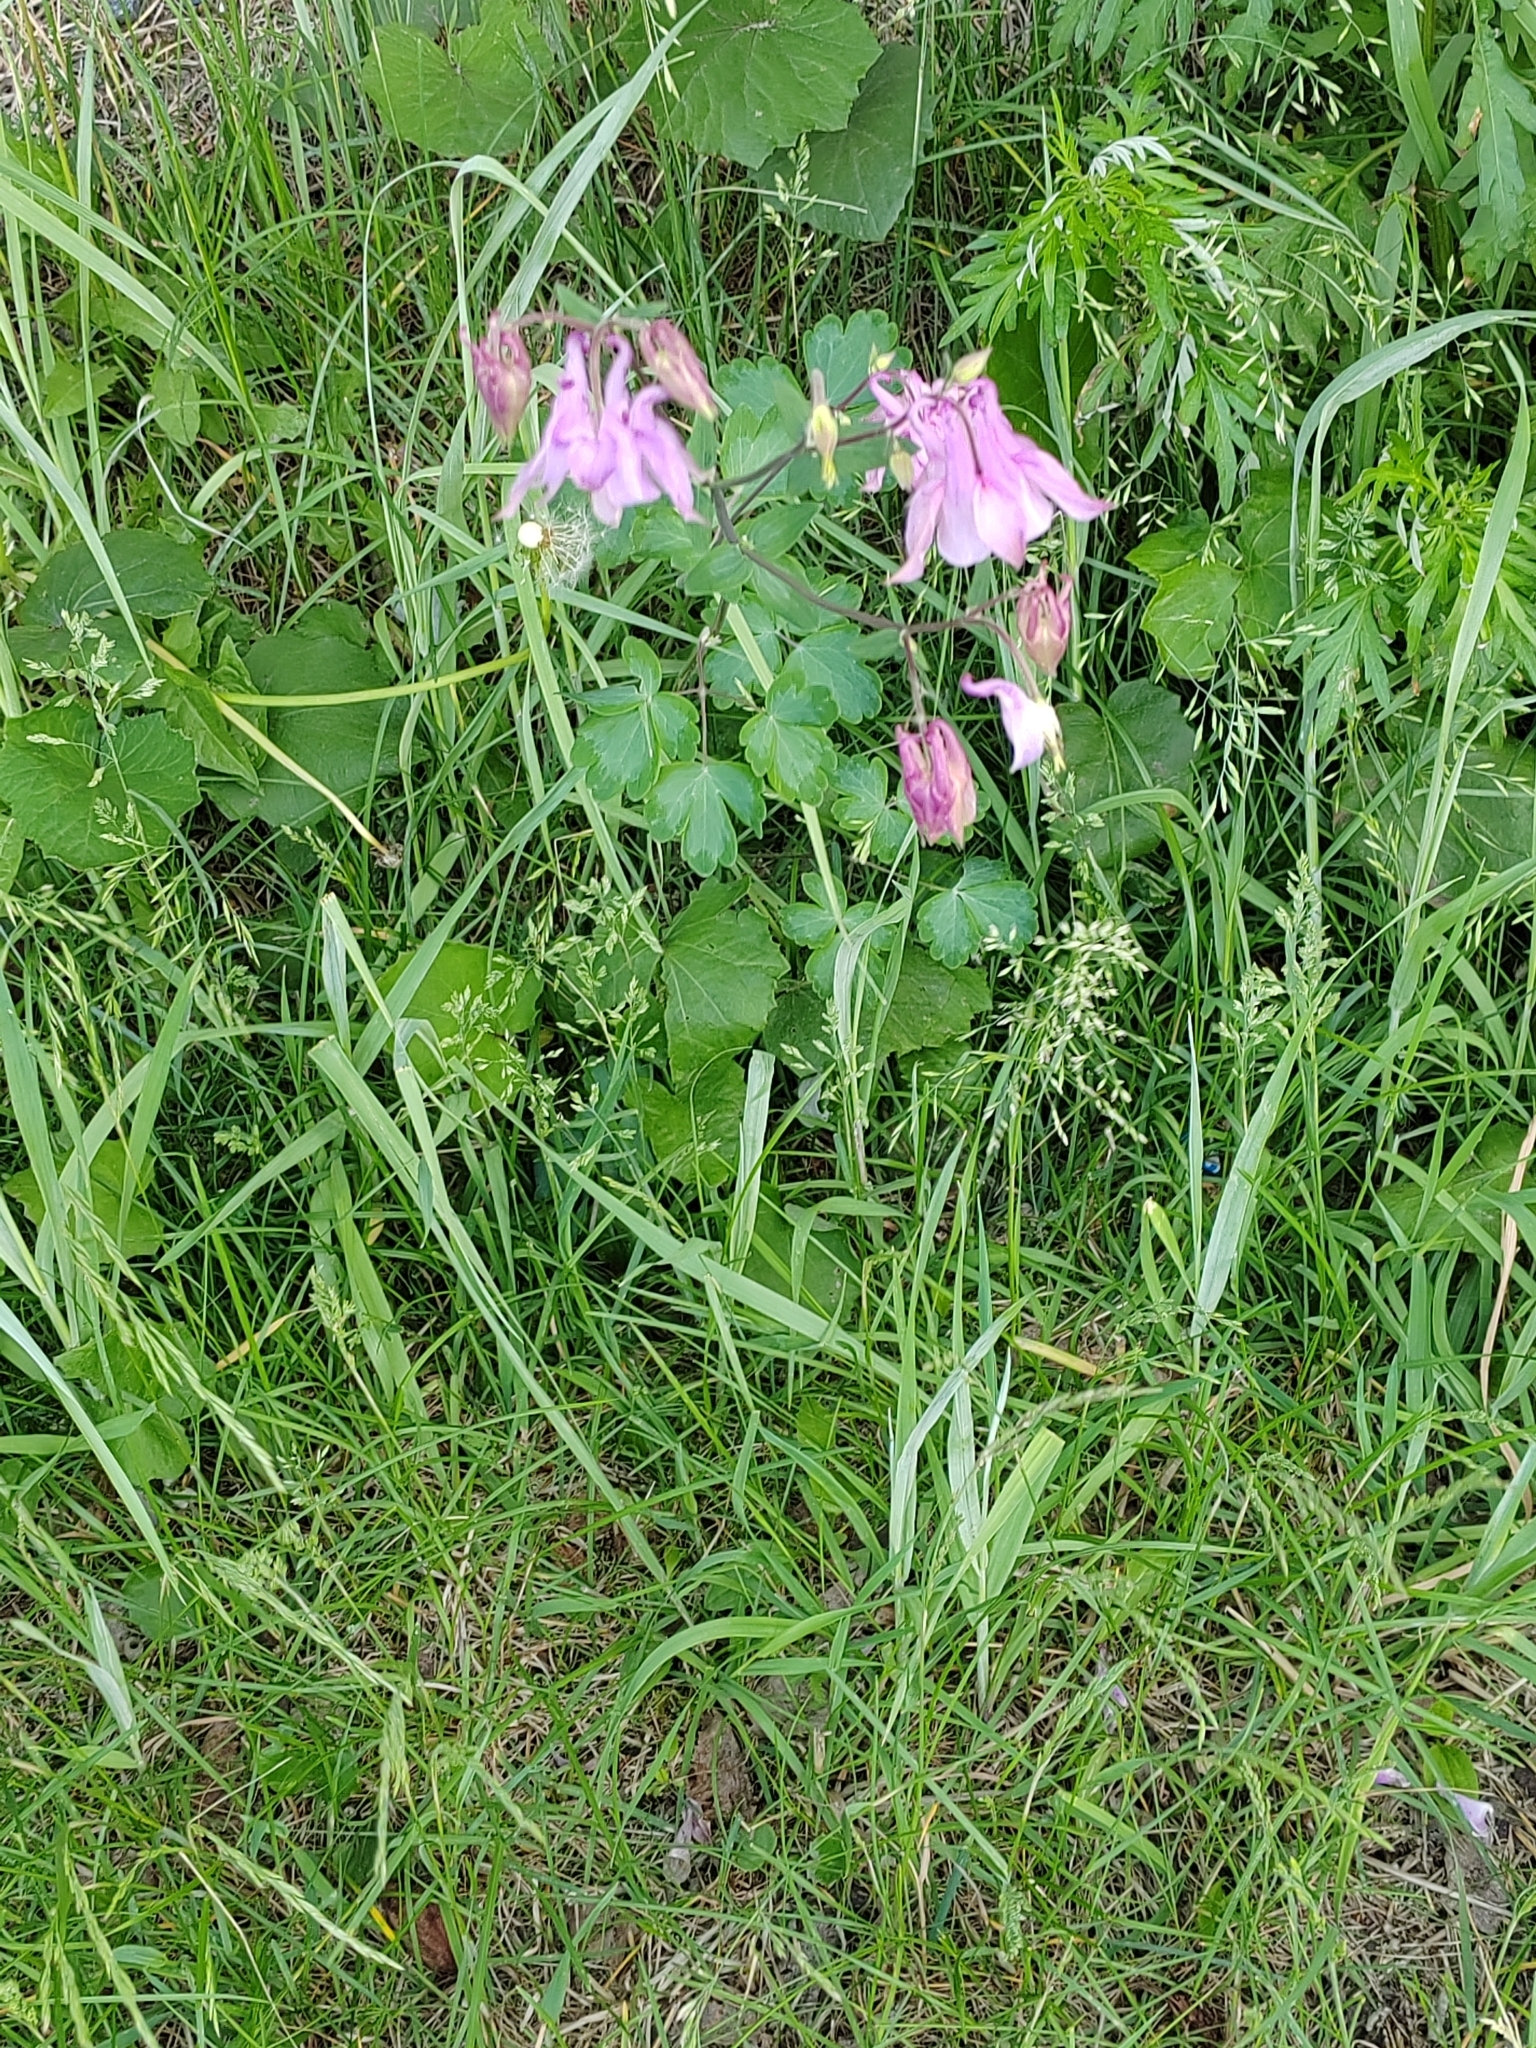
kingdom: Plantae
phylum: Tracheophyta
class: Magnoliopsida
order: Ranunculales
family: Ranunculaceae
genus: Aquilegia
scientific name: Aquilegia vulgaris
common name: Columbine
